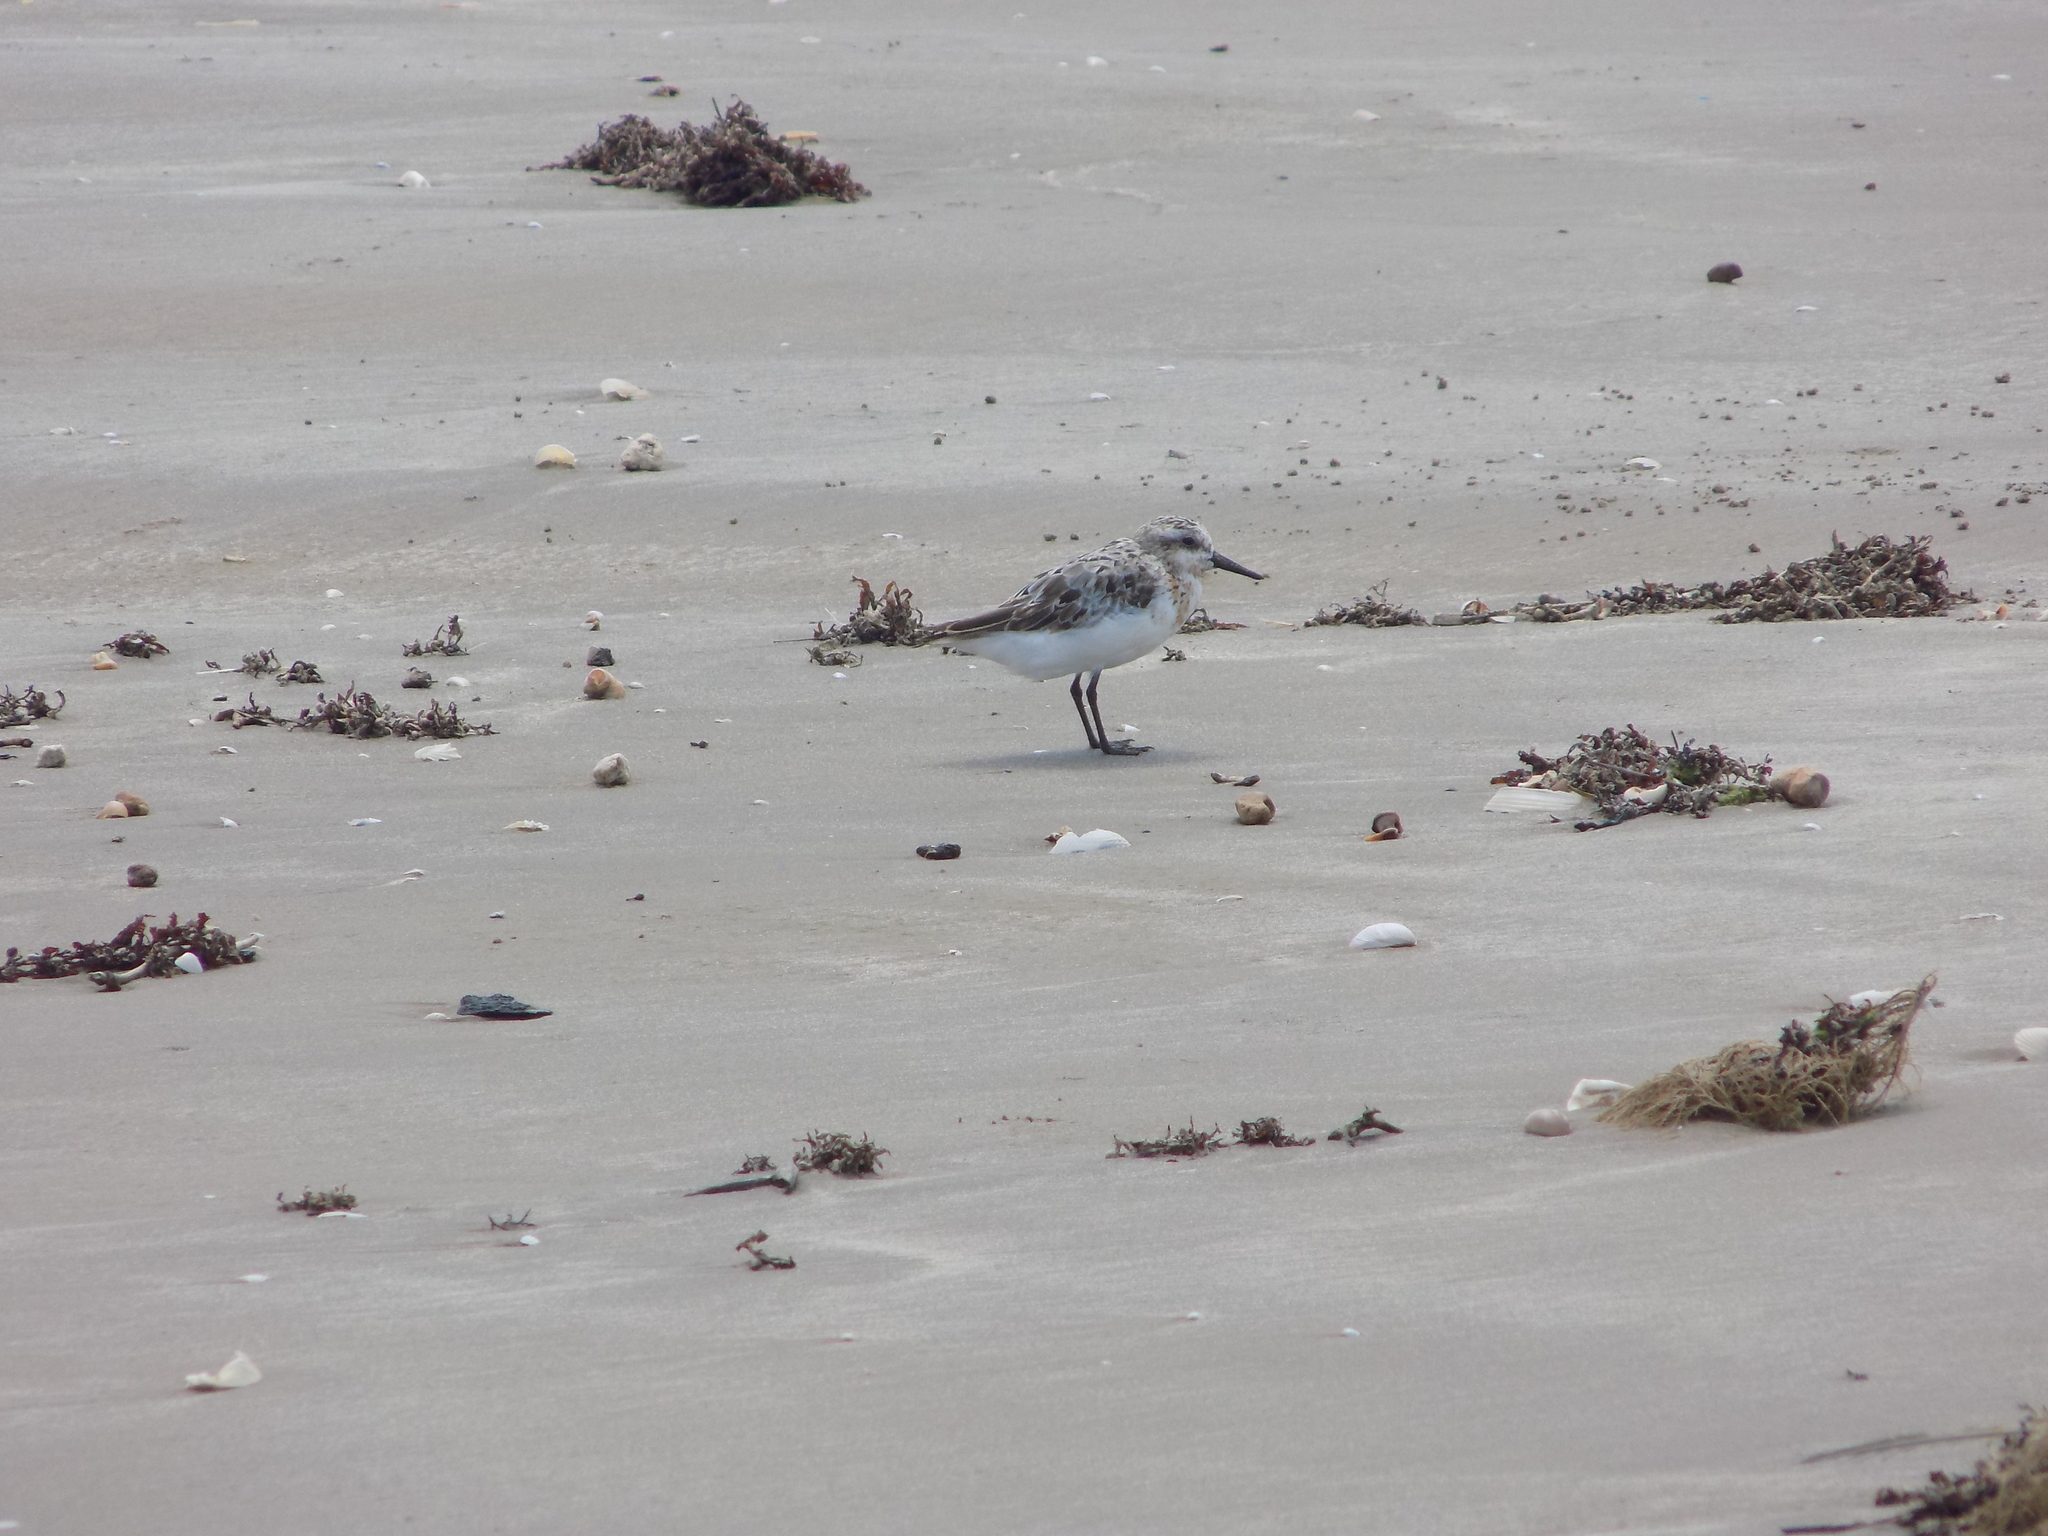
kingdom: Animalia
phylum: Chordata
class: Aves
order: Charadriiformes
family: Scolopacidae
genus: Calidris
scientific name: Calidris alba
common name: Sanderling
